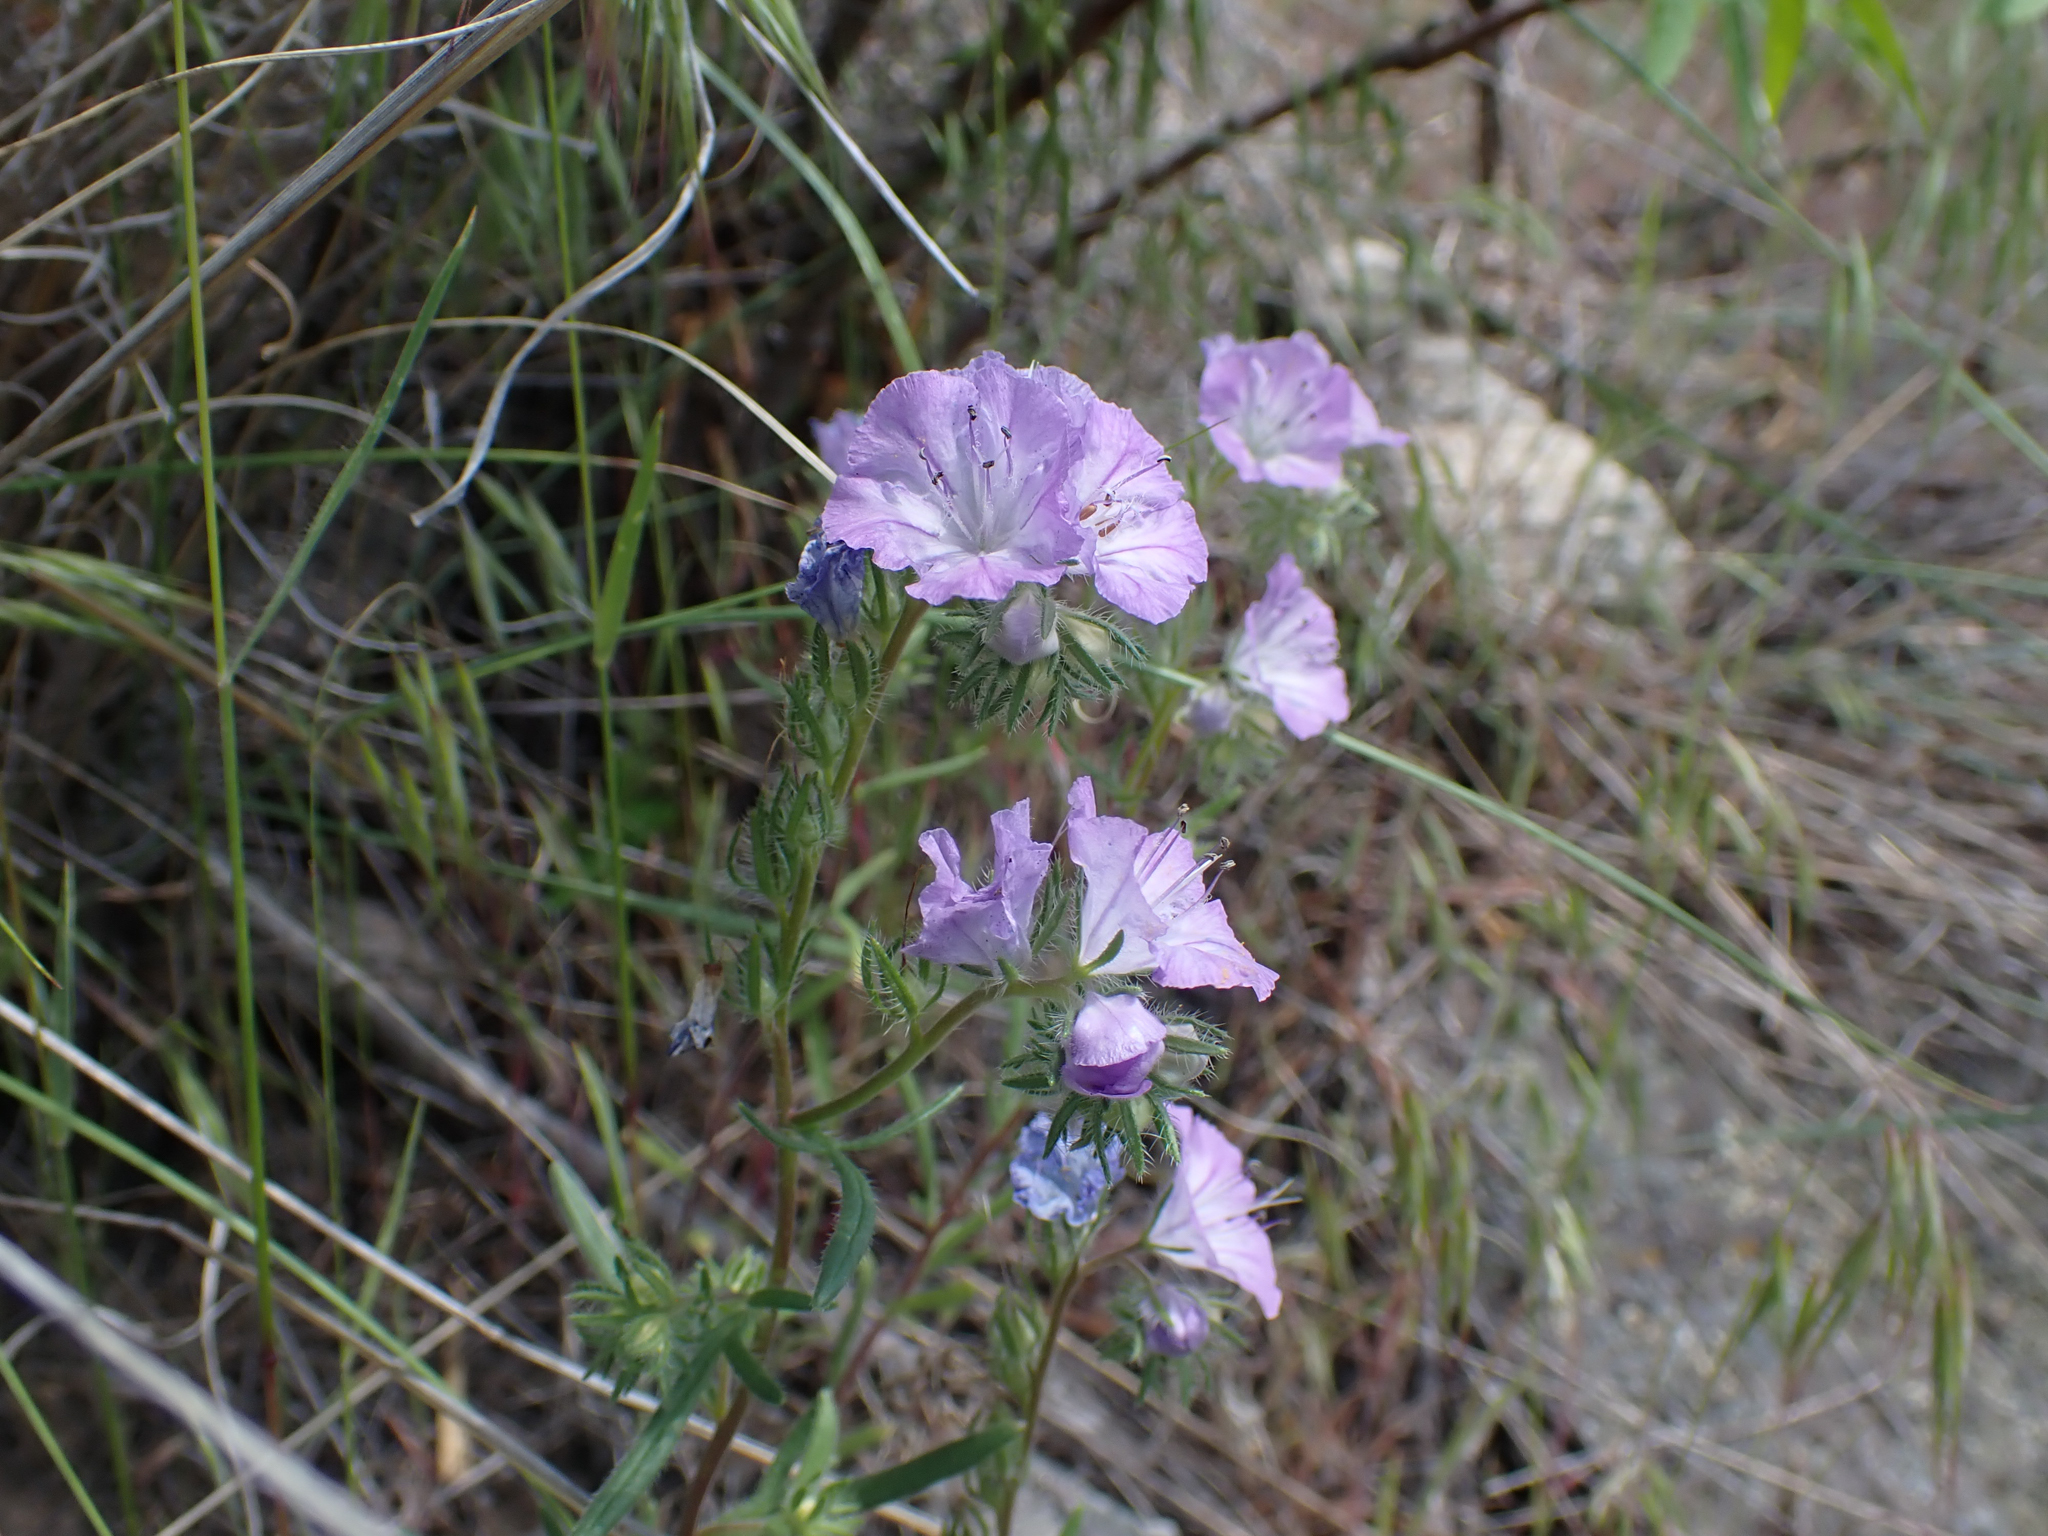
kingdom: Plantae
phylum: Tracheophyta
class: Magnoliopsida
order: Boraginales
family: Hydrophyllaceae
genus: Phacelia
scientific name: Phacelia linearis
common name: Linear-leaved phacelia
